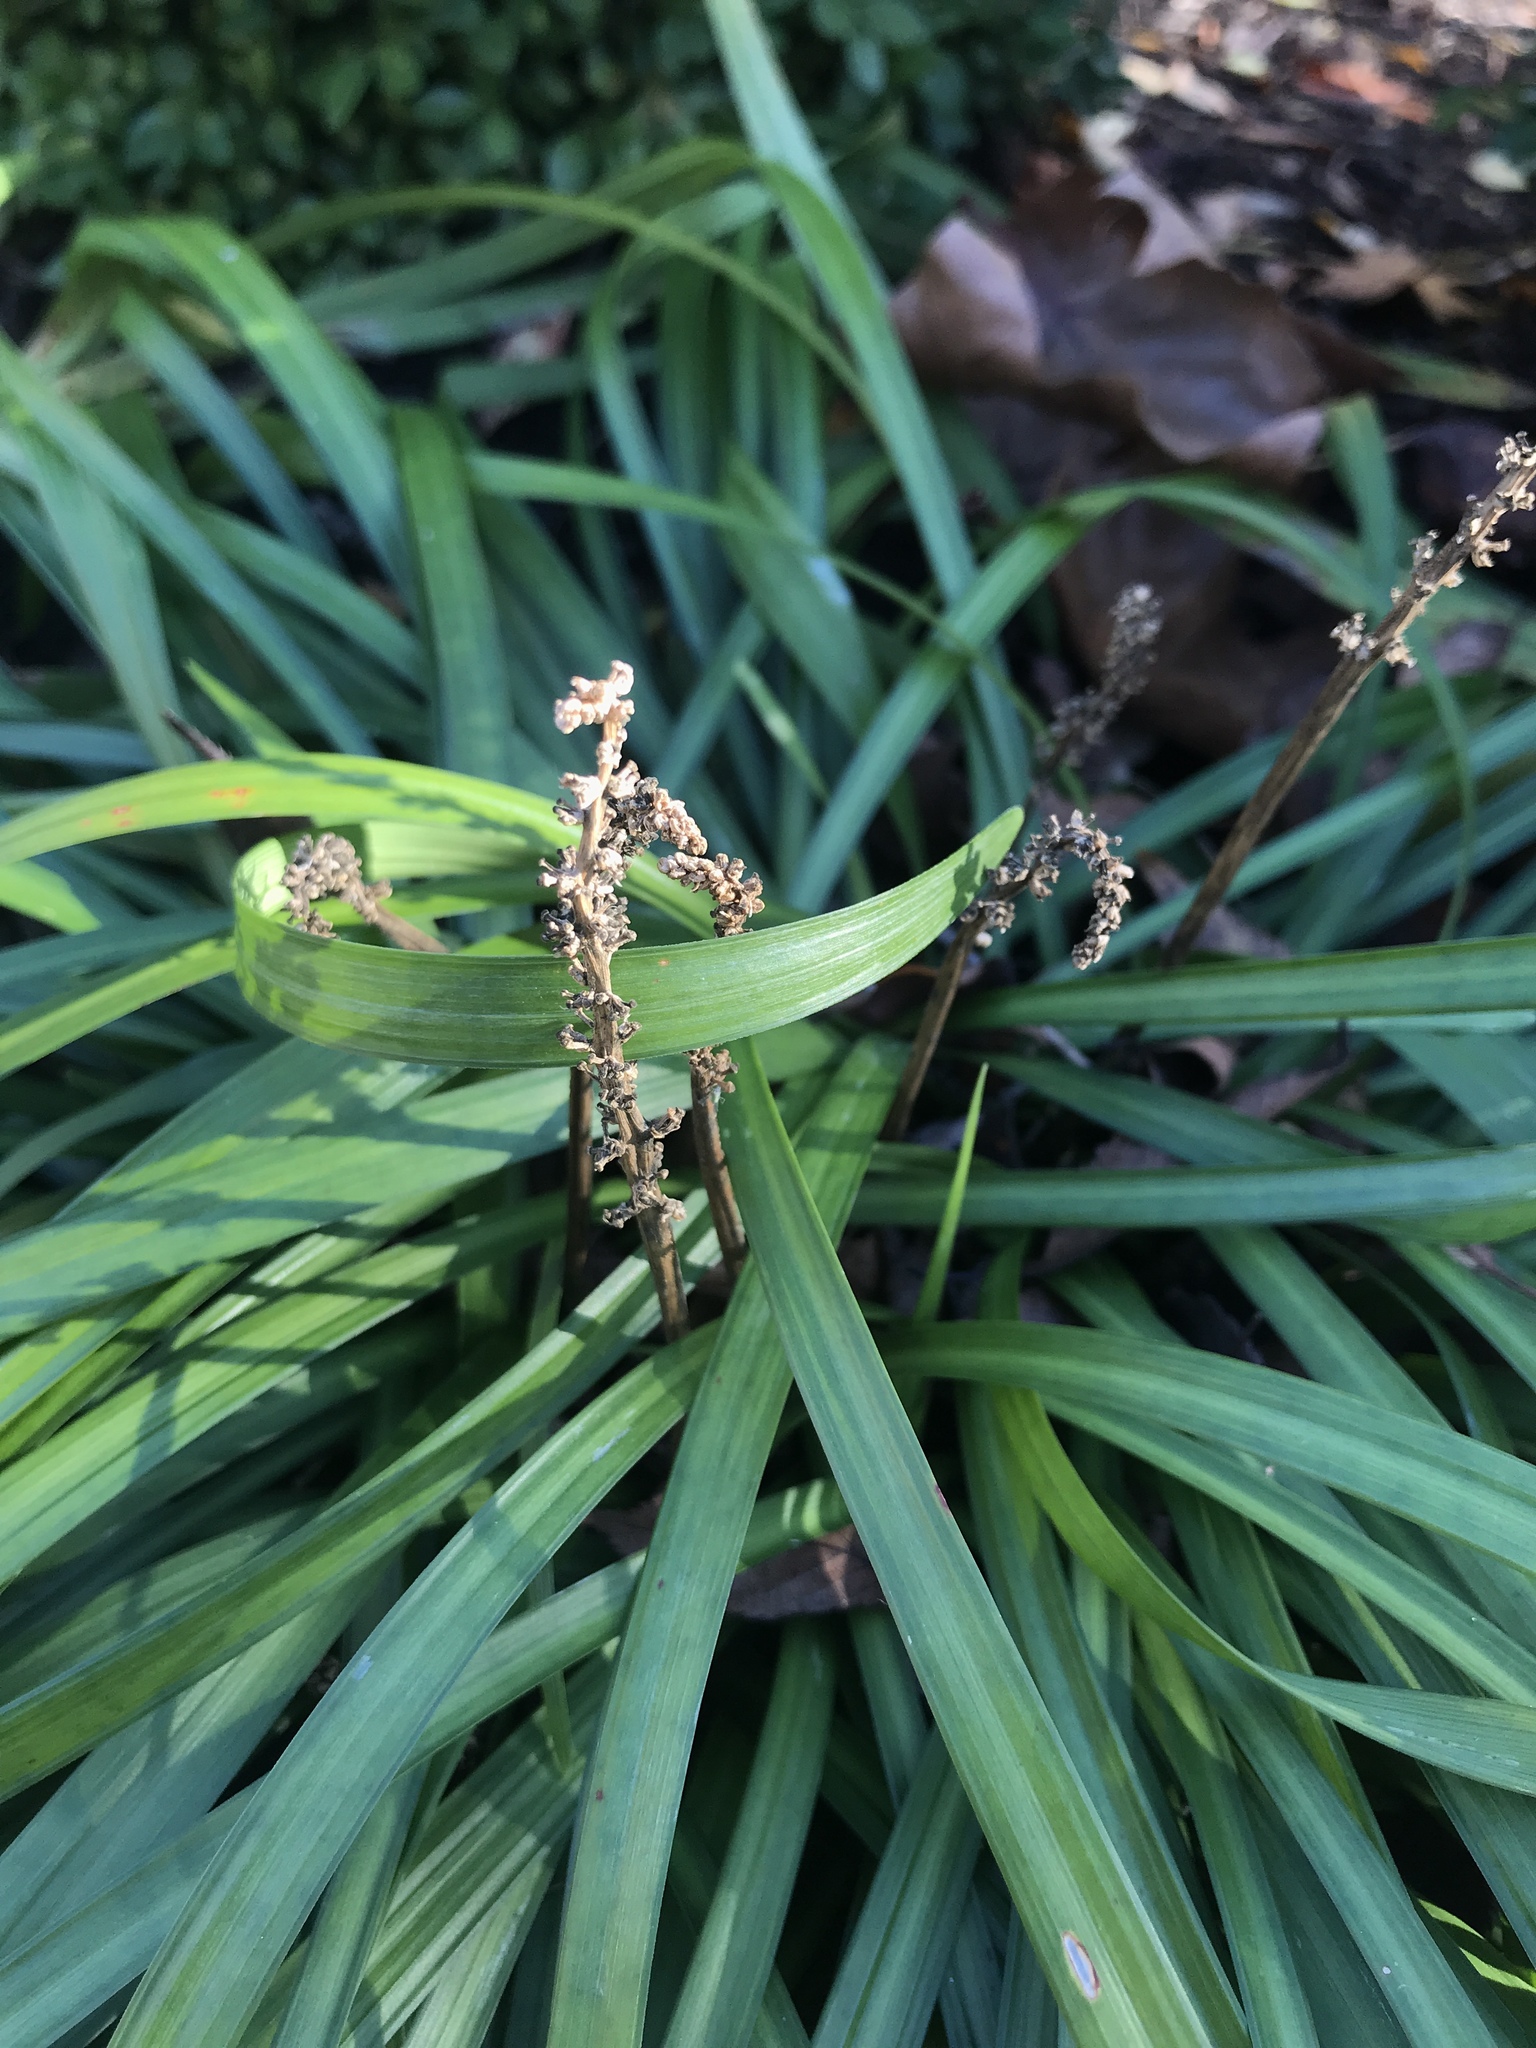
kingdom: Plantae
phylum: Tracheophyta
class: Liliopsida
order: Asparagales
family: Asparagaceae
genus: Liriope
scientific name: Liriope muscari
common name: Big blue lilyturf
